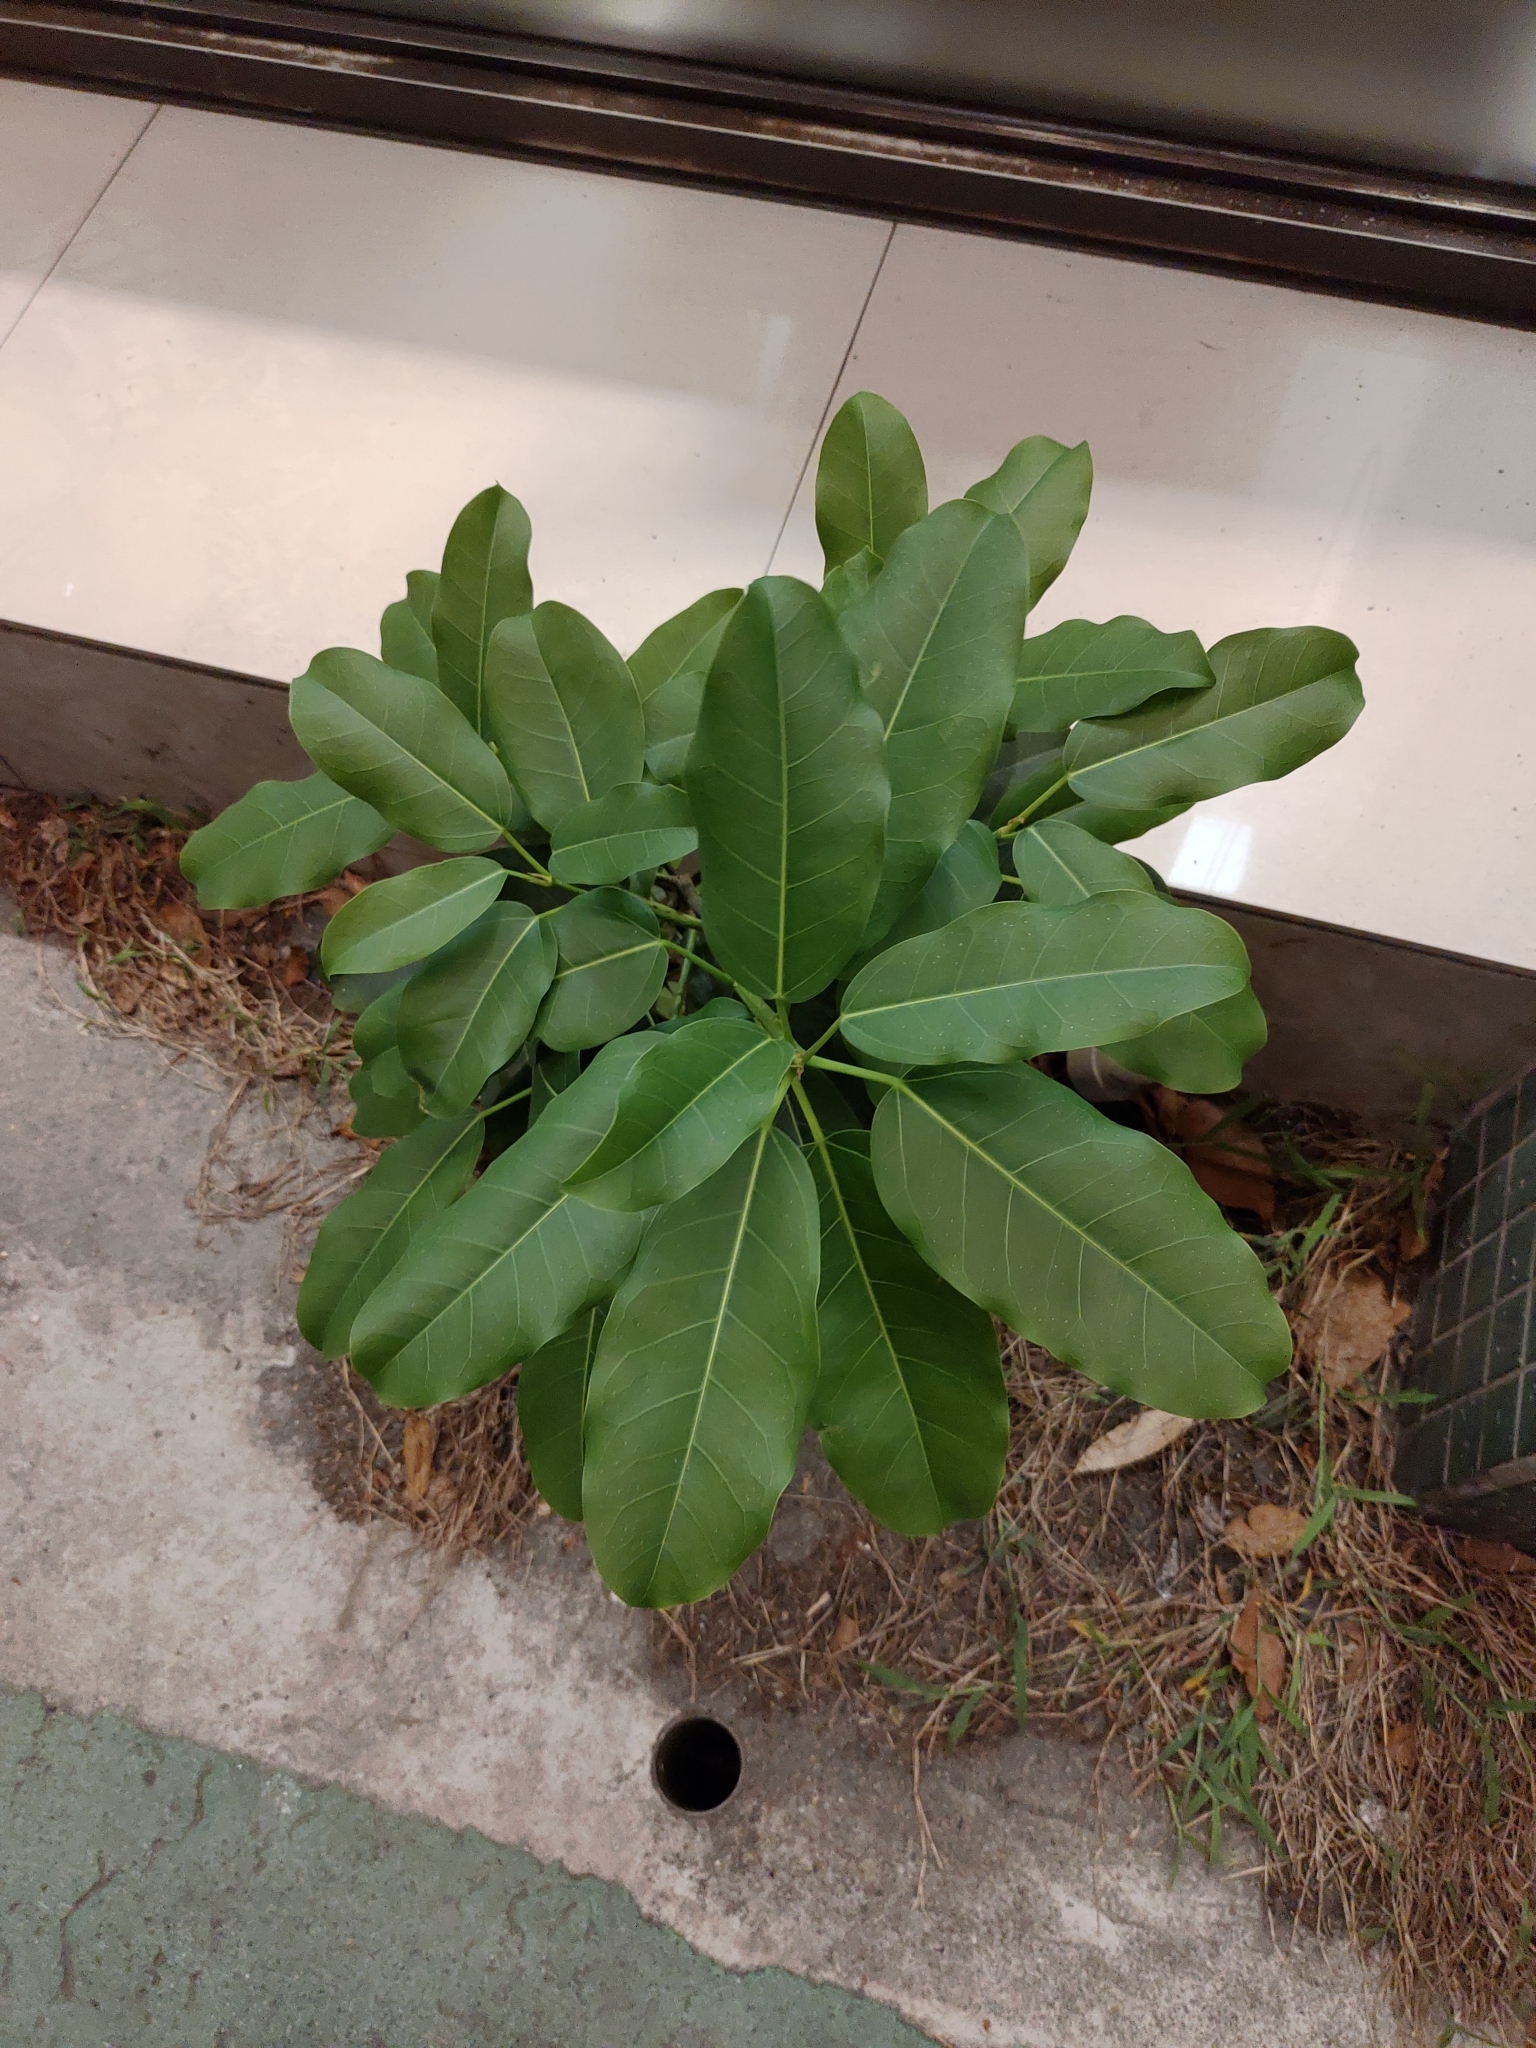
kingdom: Plantae
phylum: Tracheophyta
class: Magnoliopsida
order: Rosales
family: Moraceae
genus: Ficus
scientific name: Ficus subpisocarpa
